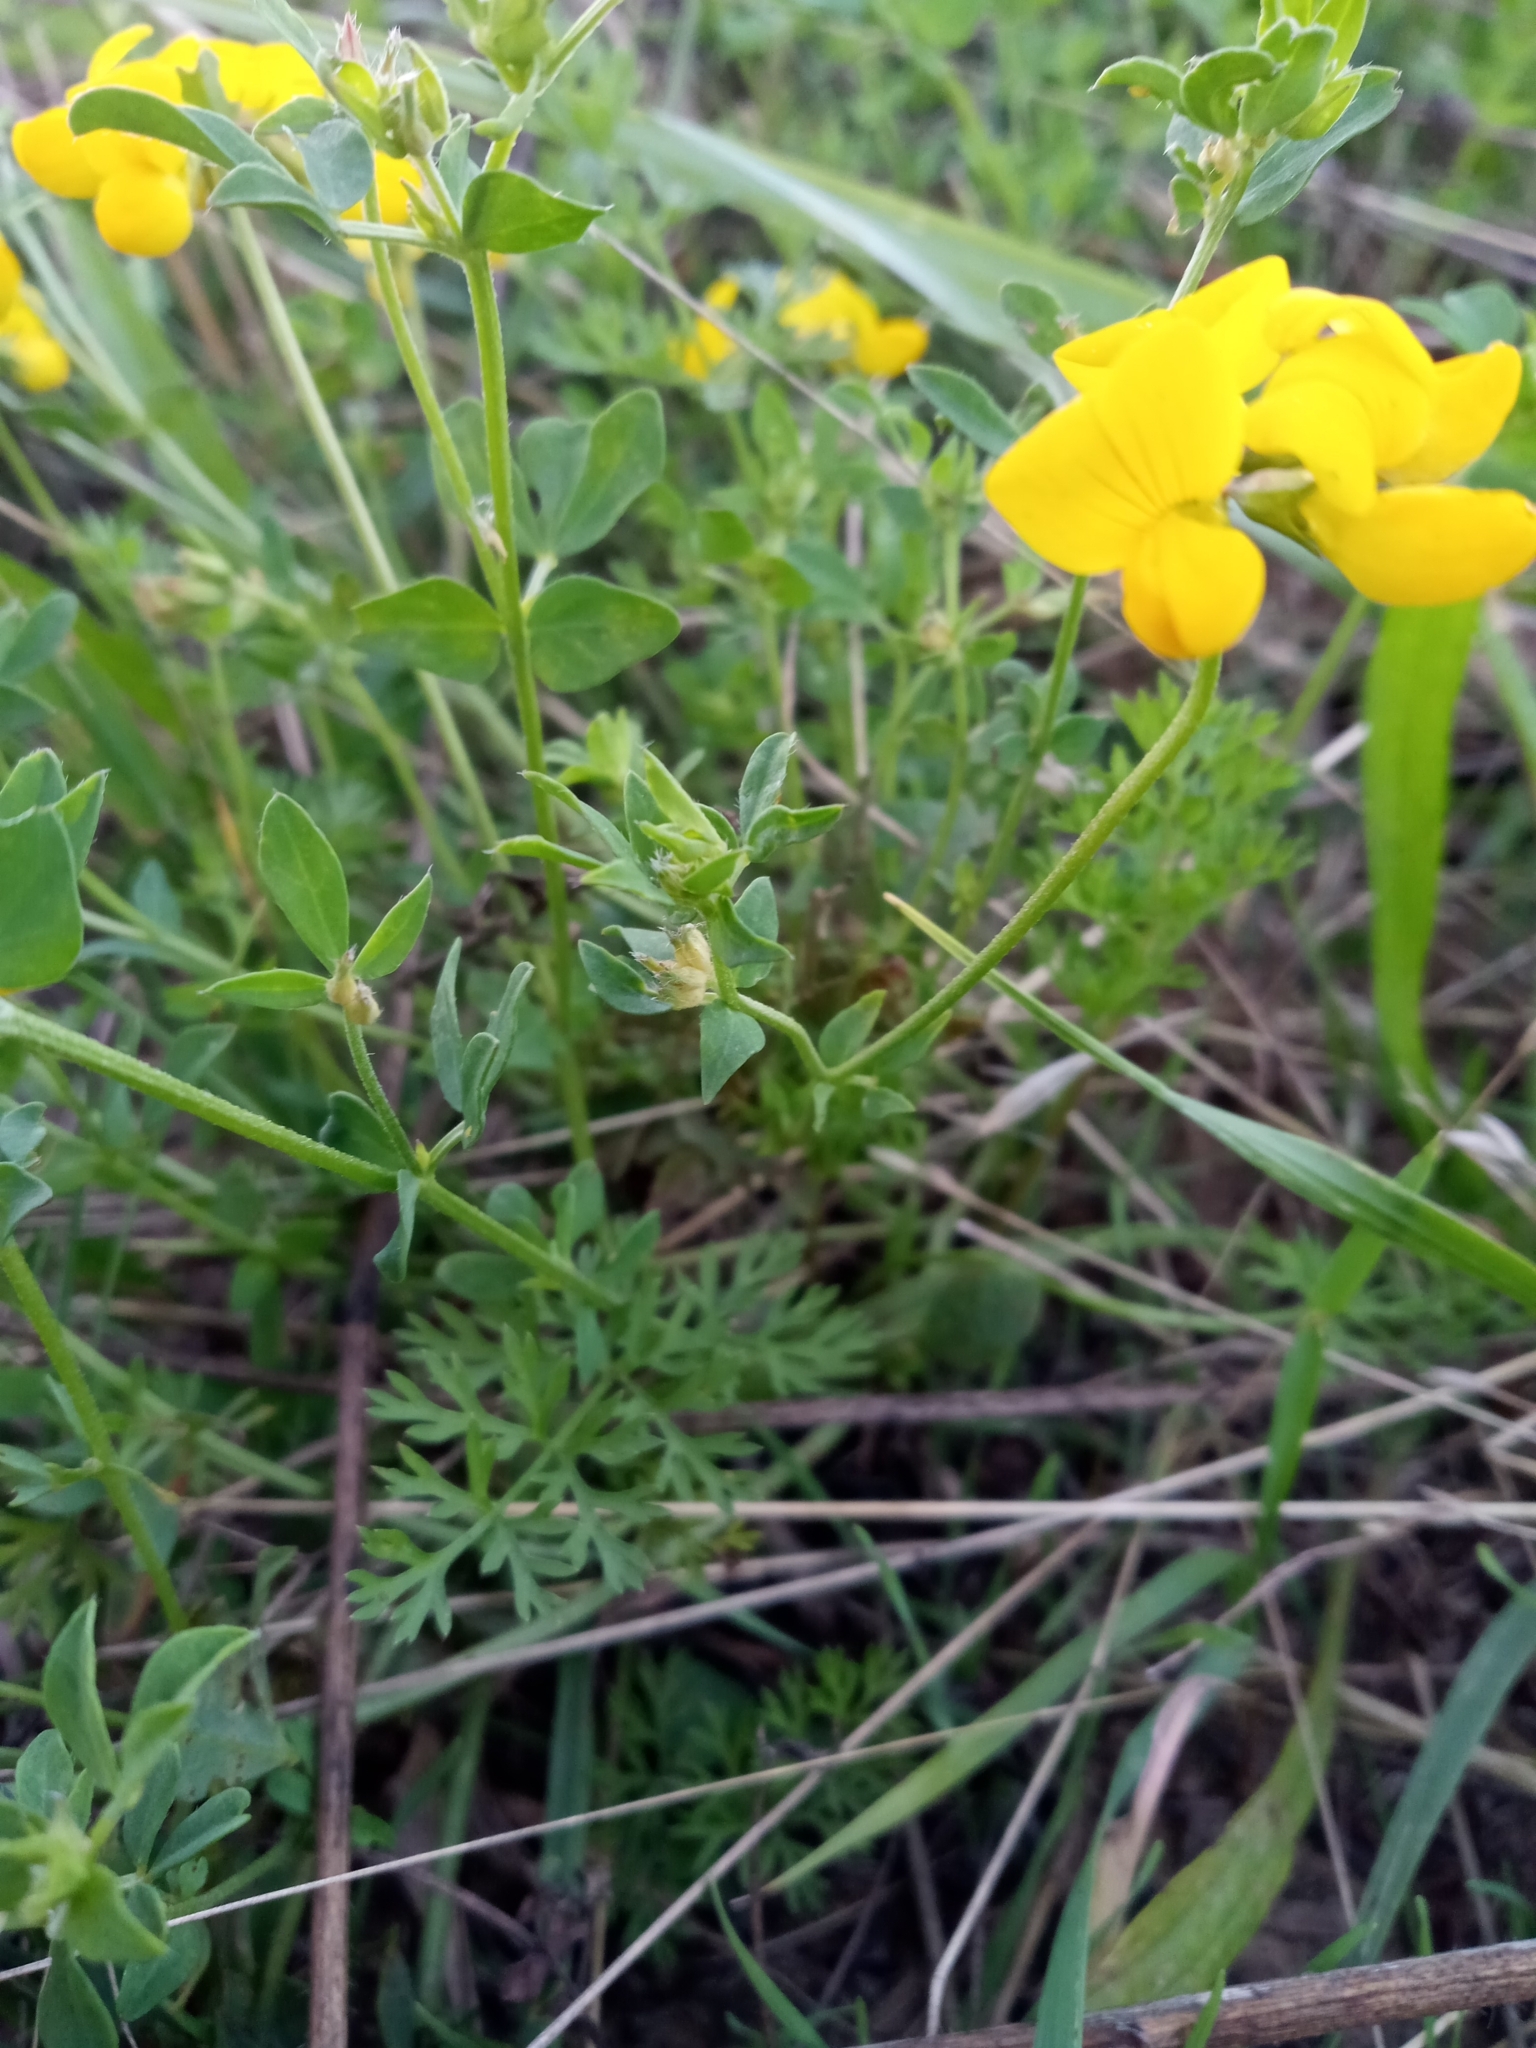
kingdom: Plantae
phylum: Tracheophyta
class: Magnoliopsida
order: Fabales
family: Fabaceae
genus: Lotus
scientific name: Lotus corniculatus
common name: Common bird's-foot-trefoil
